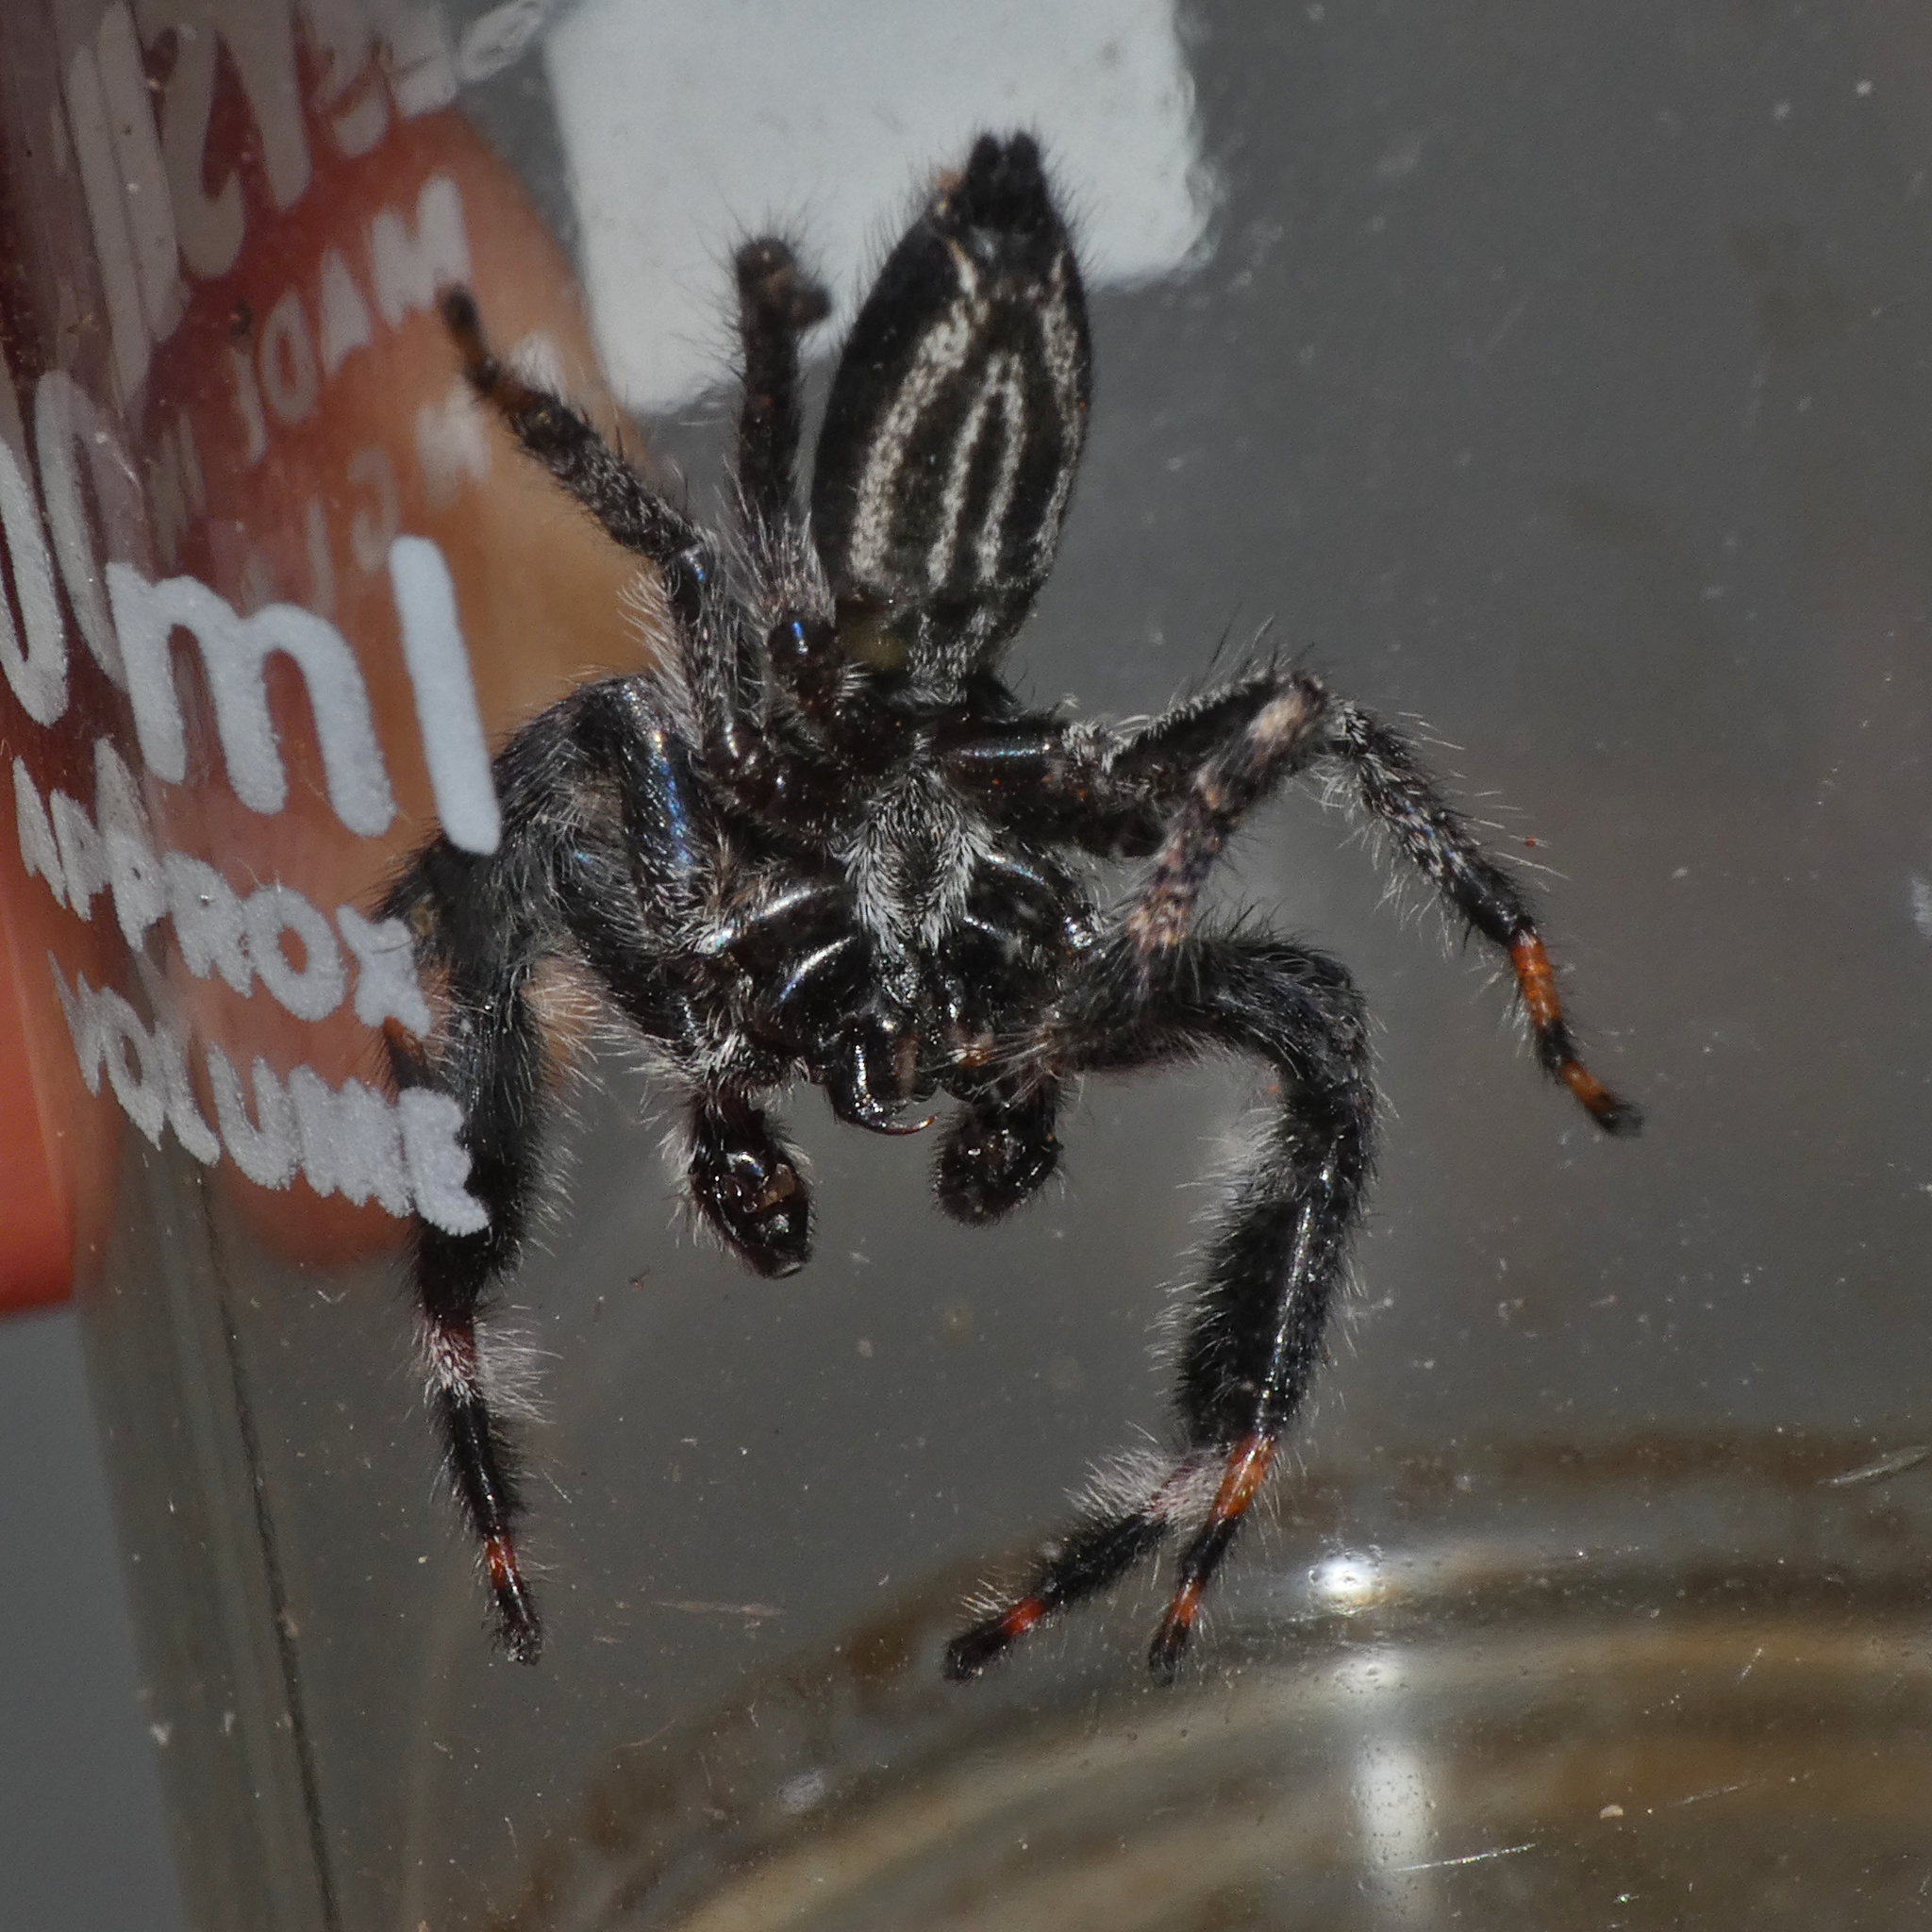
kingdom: Animalia
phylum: Arthropoda
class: Arachnida
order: Araneae
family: Salticidae
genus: Holcolaetis
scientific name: Holcolaetis vellerea
